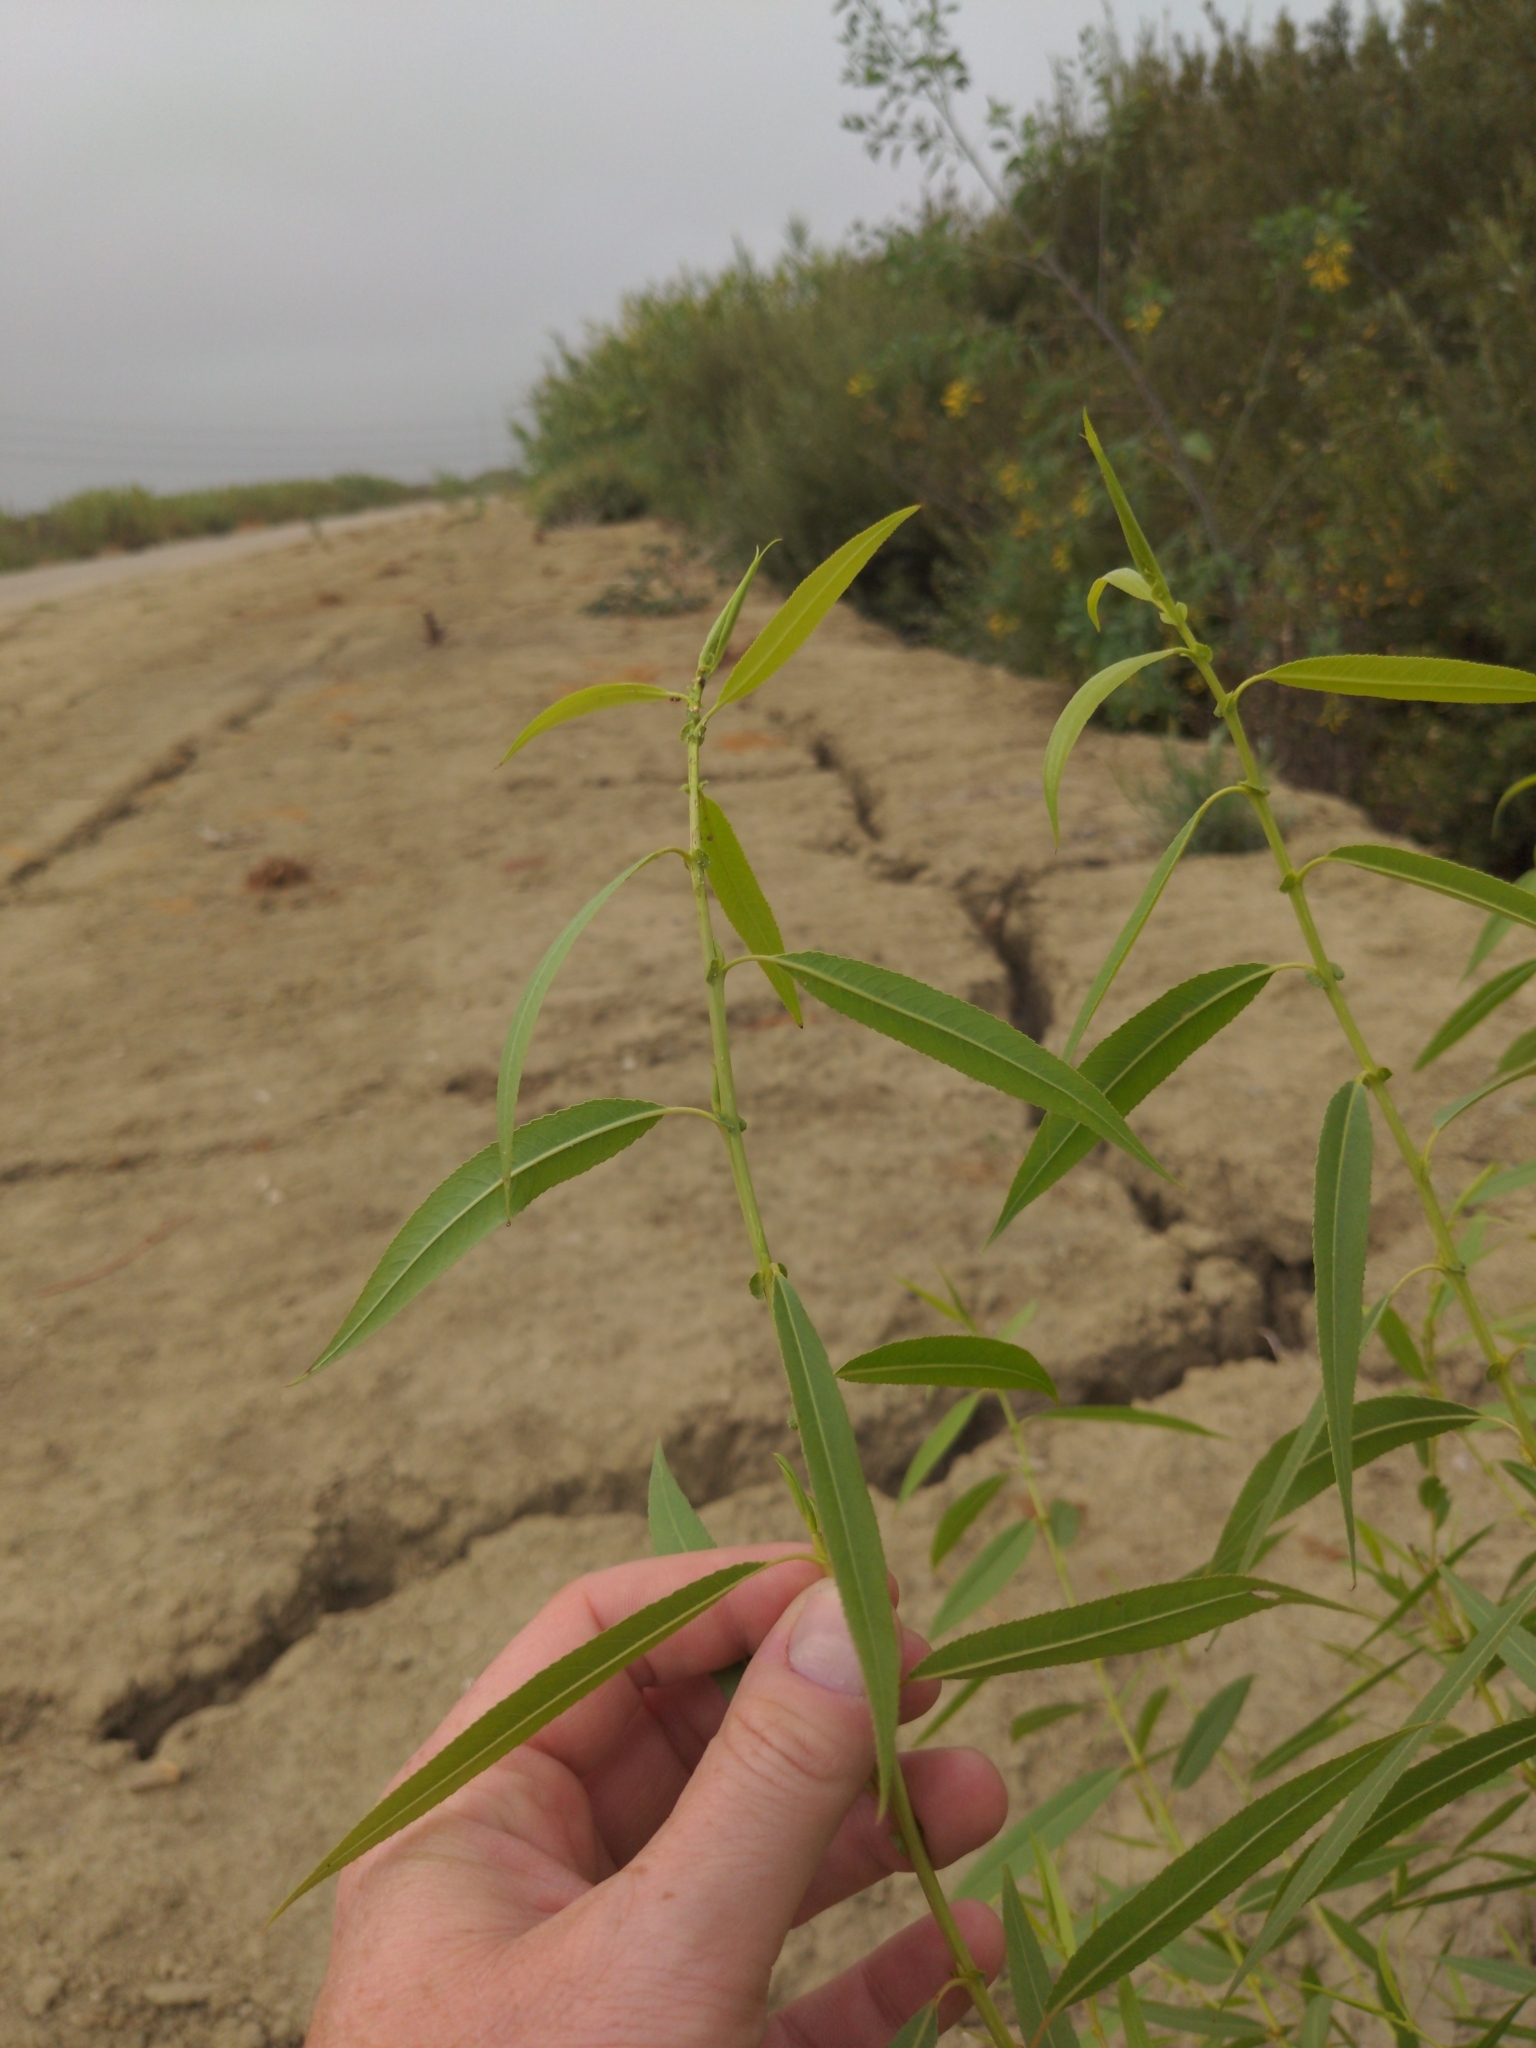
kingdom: Plantae
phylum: Tracheophyta
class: Magnoliopsida
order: Malpighiales
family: Salicaceae
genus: Salix
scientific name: Salix gooddingii
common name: Goodding's willow
